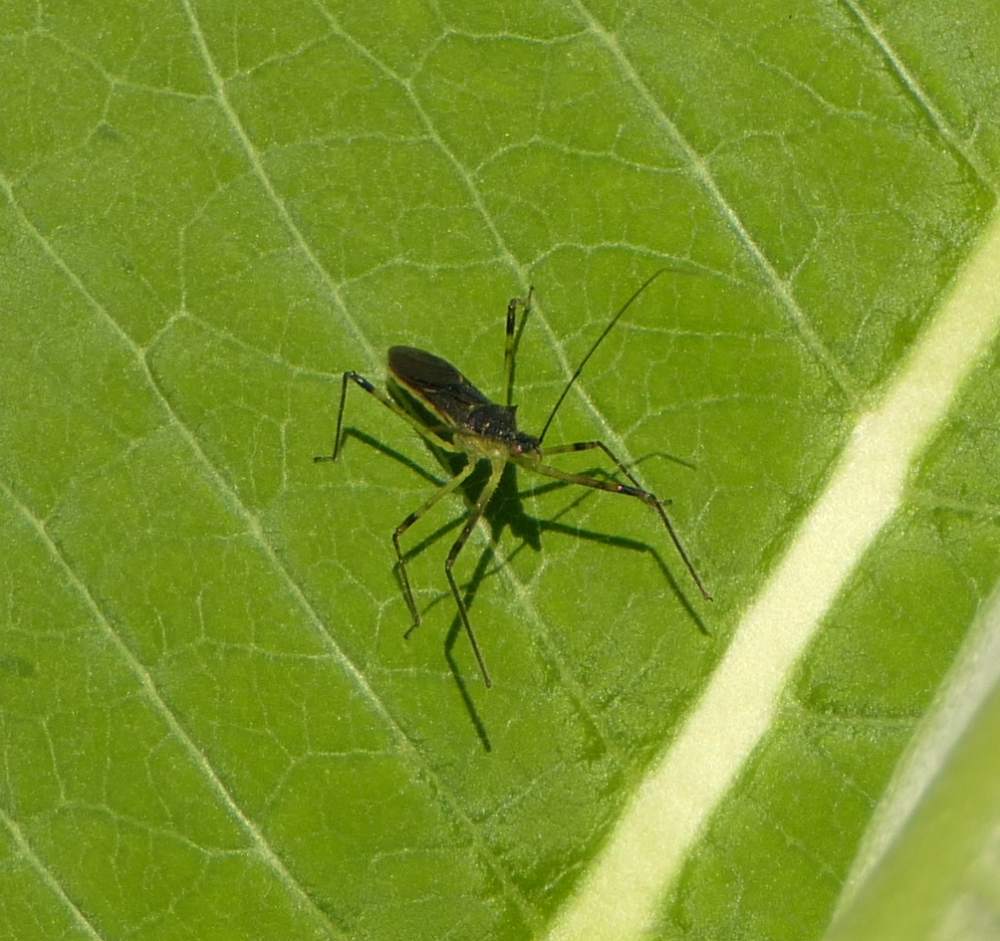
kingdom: Animalia
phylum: Arthropoda
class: Insecta
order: Hemiptera
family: Reduviidae
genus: Zelus
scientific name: Zelus luridus
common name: Pale green assassin bug
